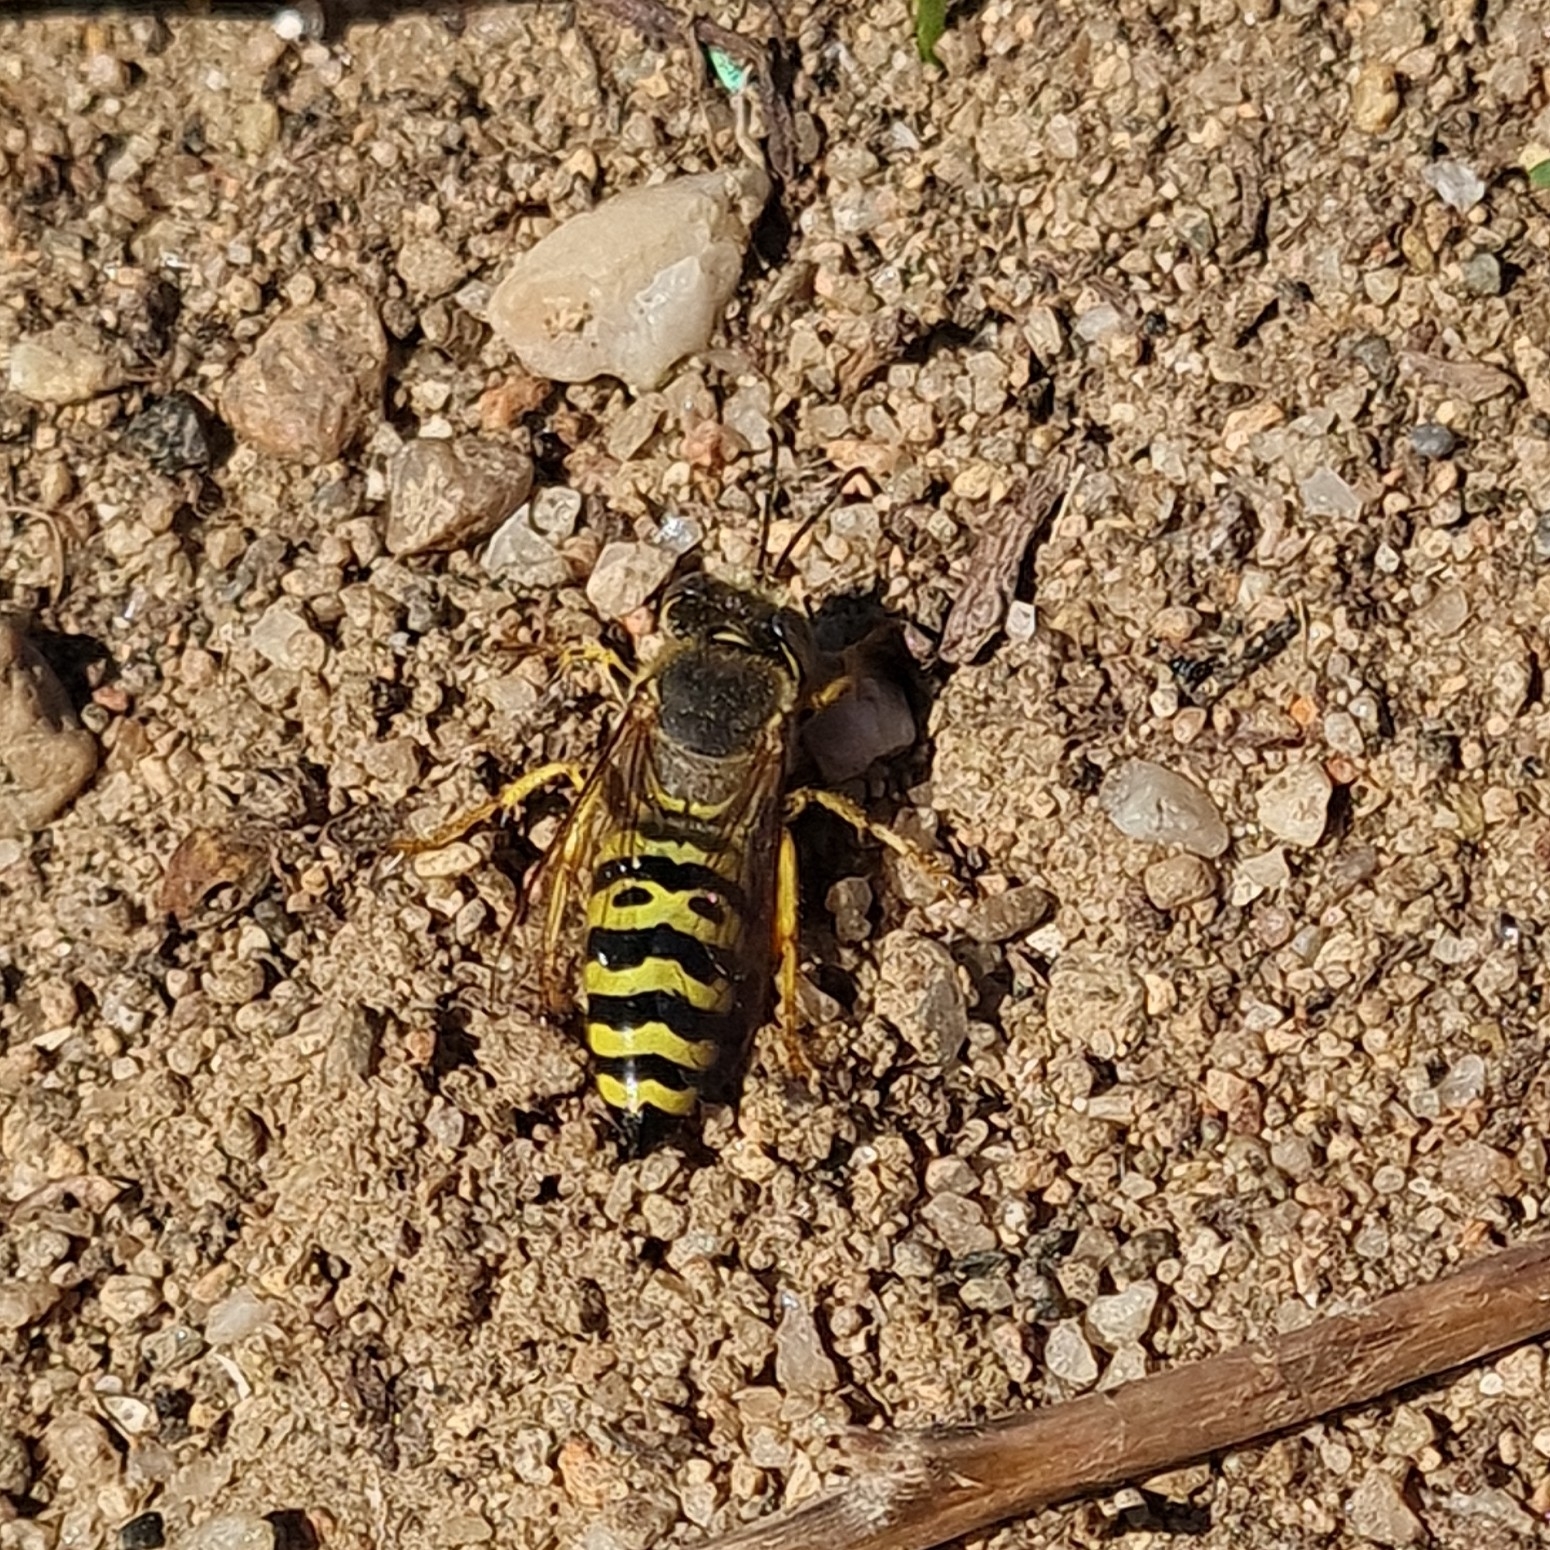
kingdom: Animalia
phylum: Arthropoda
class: Insecta
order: Hymenoptera
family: Crabronidae
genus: Bembix
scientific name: Bembix oculata
